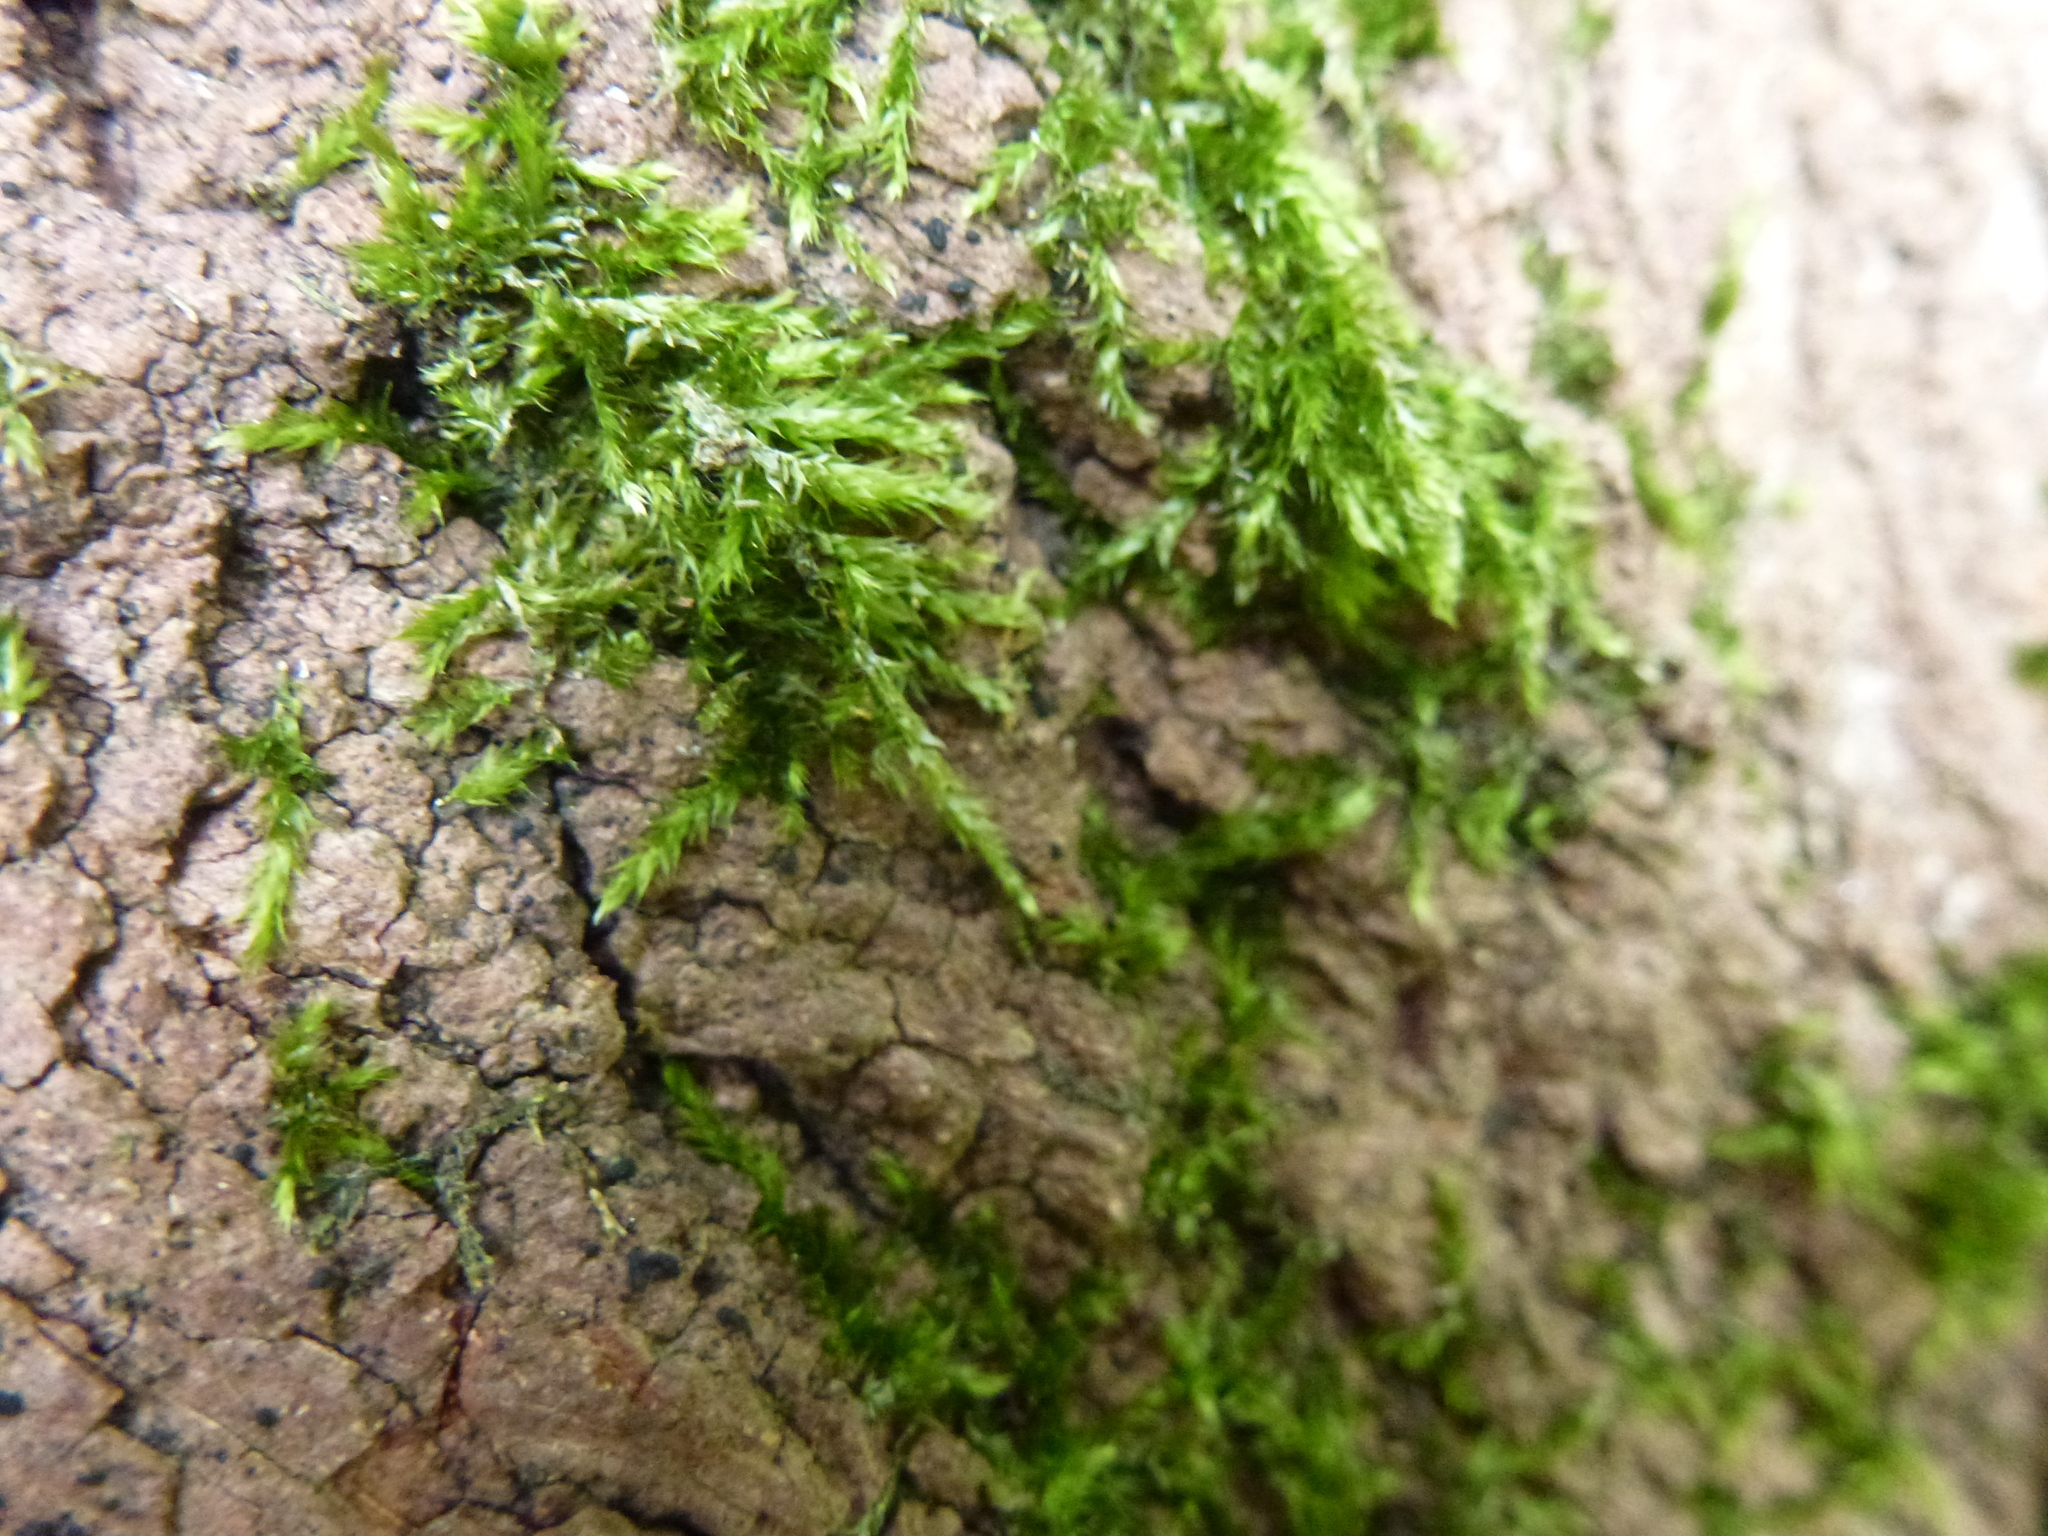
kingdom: Plantae
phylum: Bryophyta
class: Bryopsida
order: Hypnales
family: Hypnaceae
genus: Hypnum
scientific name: Hypnum andoi
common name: Ando's plait moss
